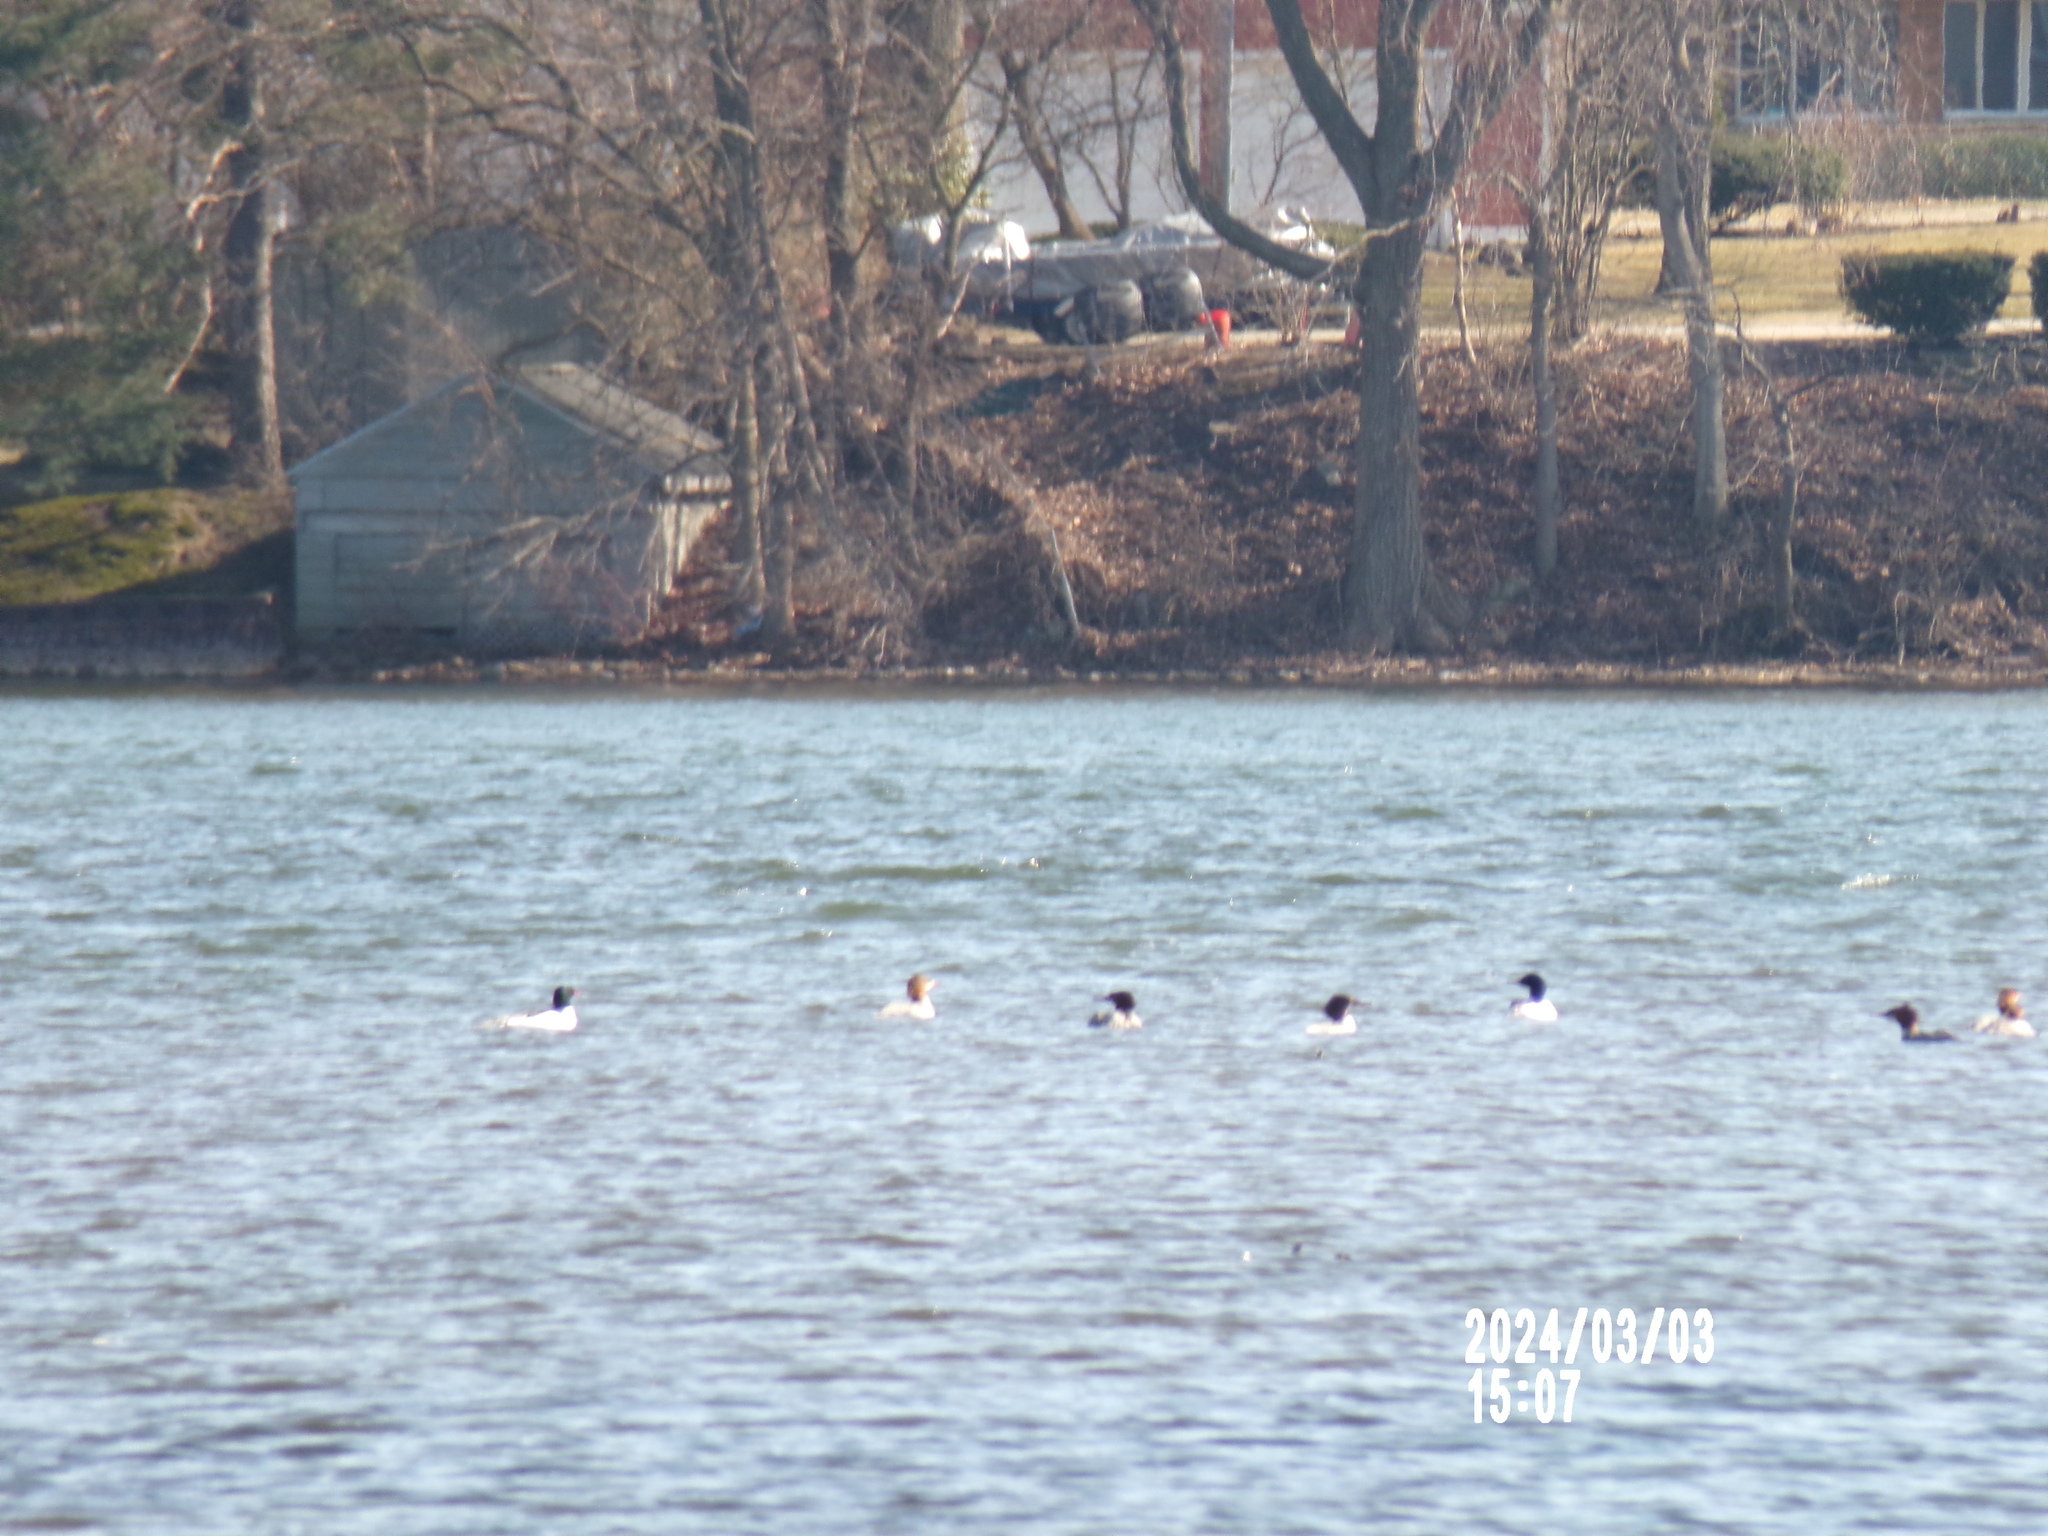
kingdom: Animalia
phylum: Chordata
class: Aves
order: Anseriformes
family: Anatidae
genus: Mergus
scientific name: Mergus merganser
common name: Common merganser
